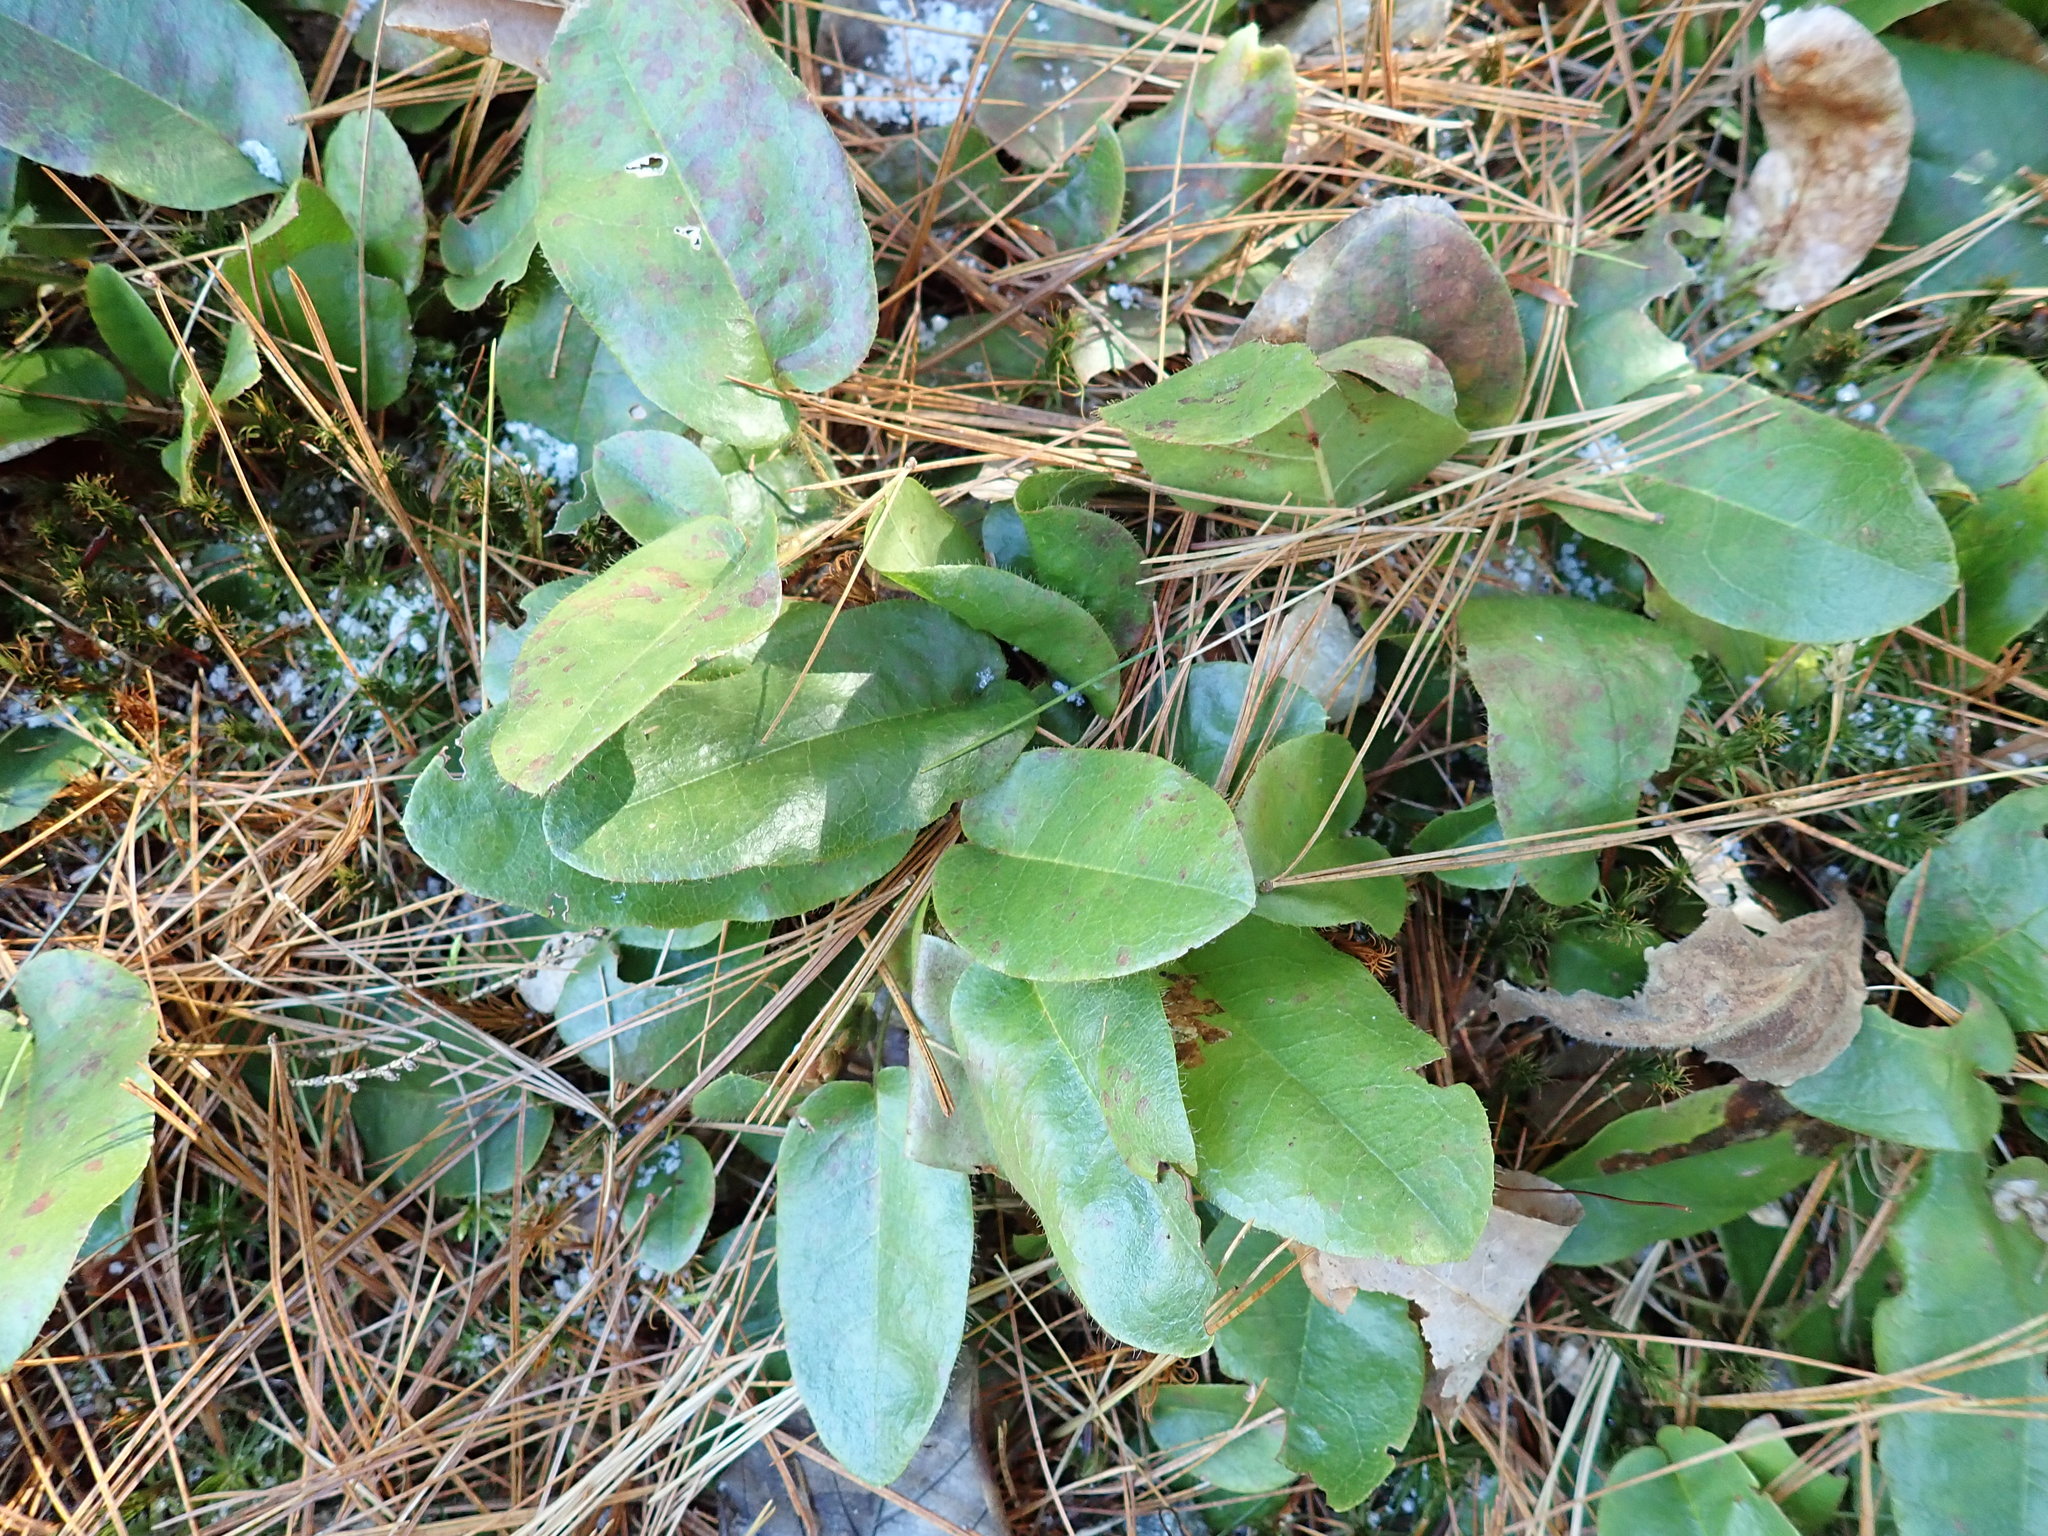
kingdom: Plantae
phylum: Tracheophyta
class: Magnoliopsida
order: Ericales
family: Ericaceae
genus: Epigaea
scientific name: Epigaea repens
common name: Gravelroot
